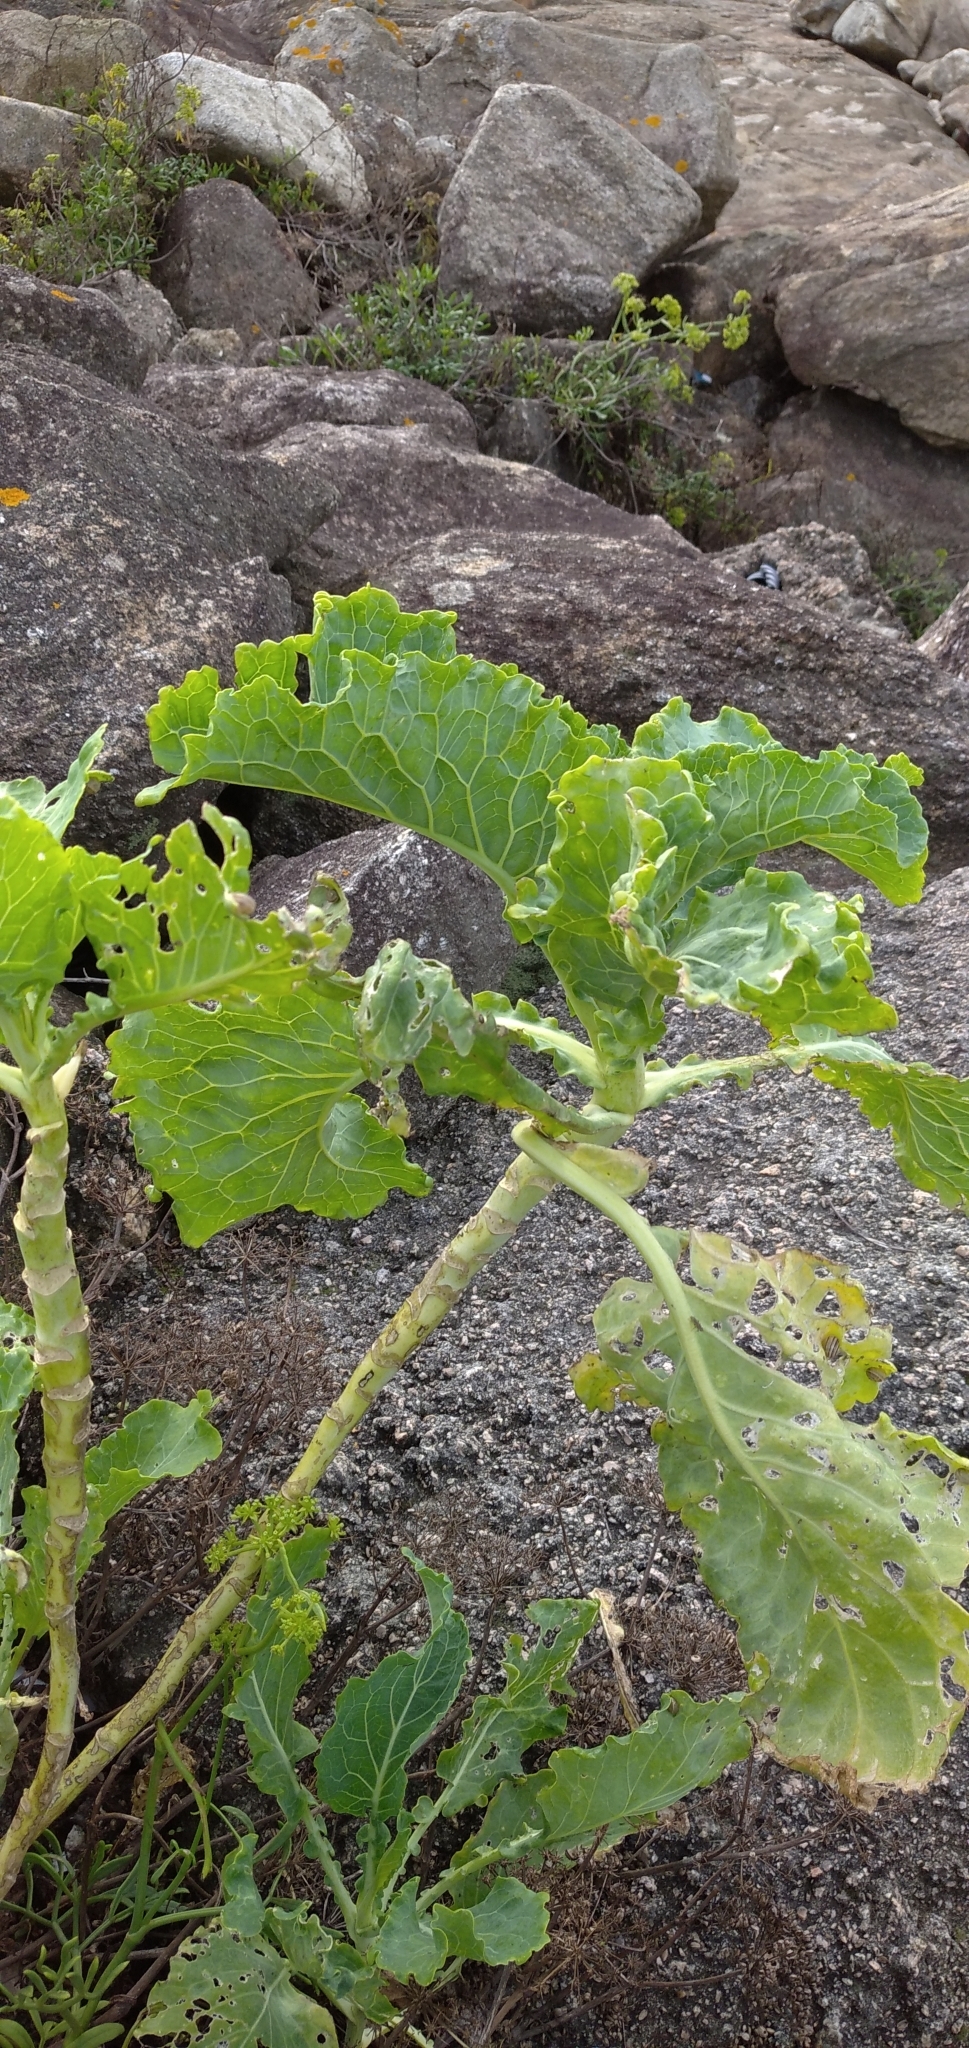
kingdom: Plantae
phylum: Tracheophyta
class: Magnoliopsida
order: Brassicales
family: Brassicaceae
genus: Brassica
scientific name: Brassica oleracea
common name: Cabbage
